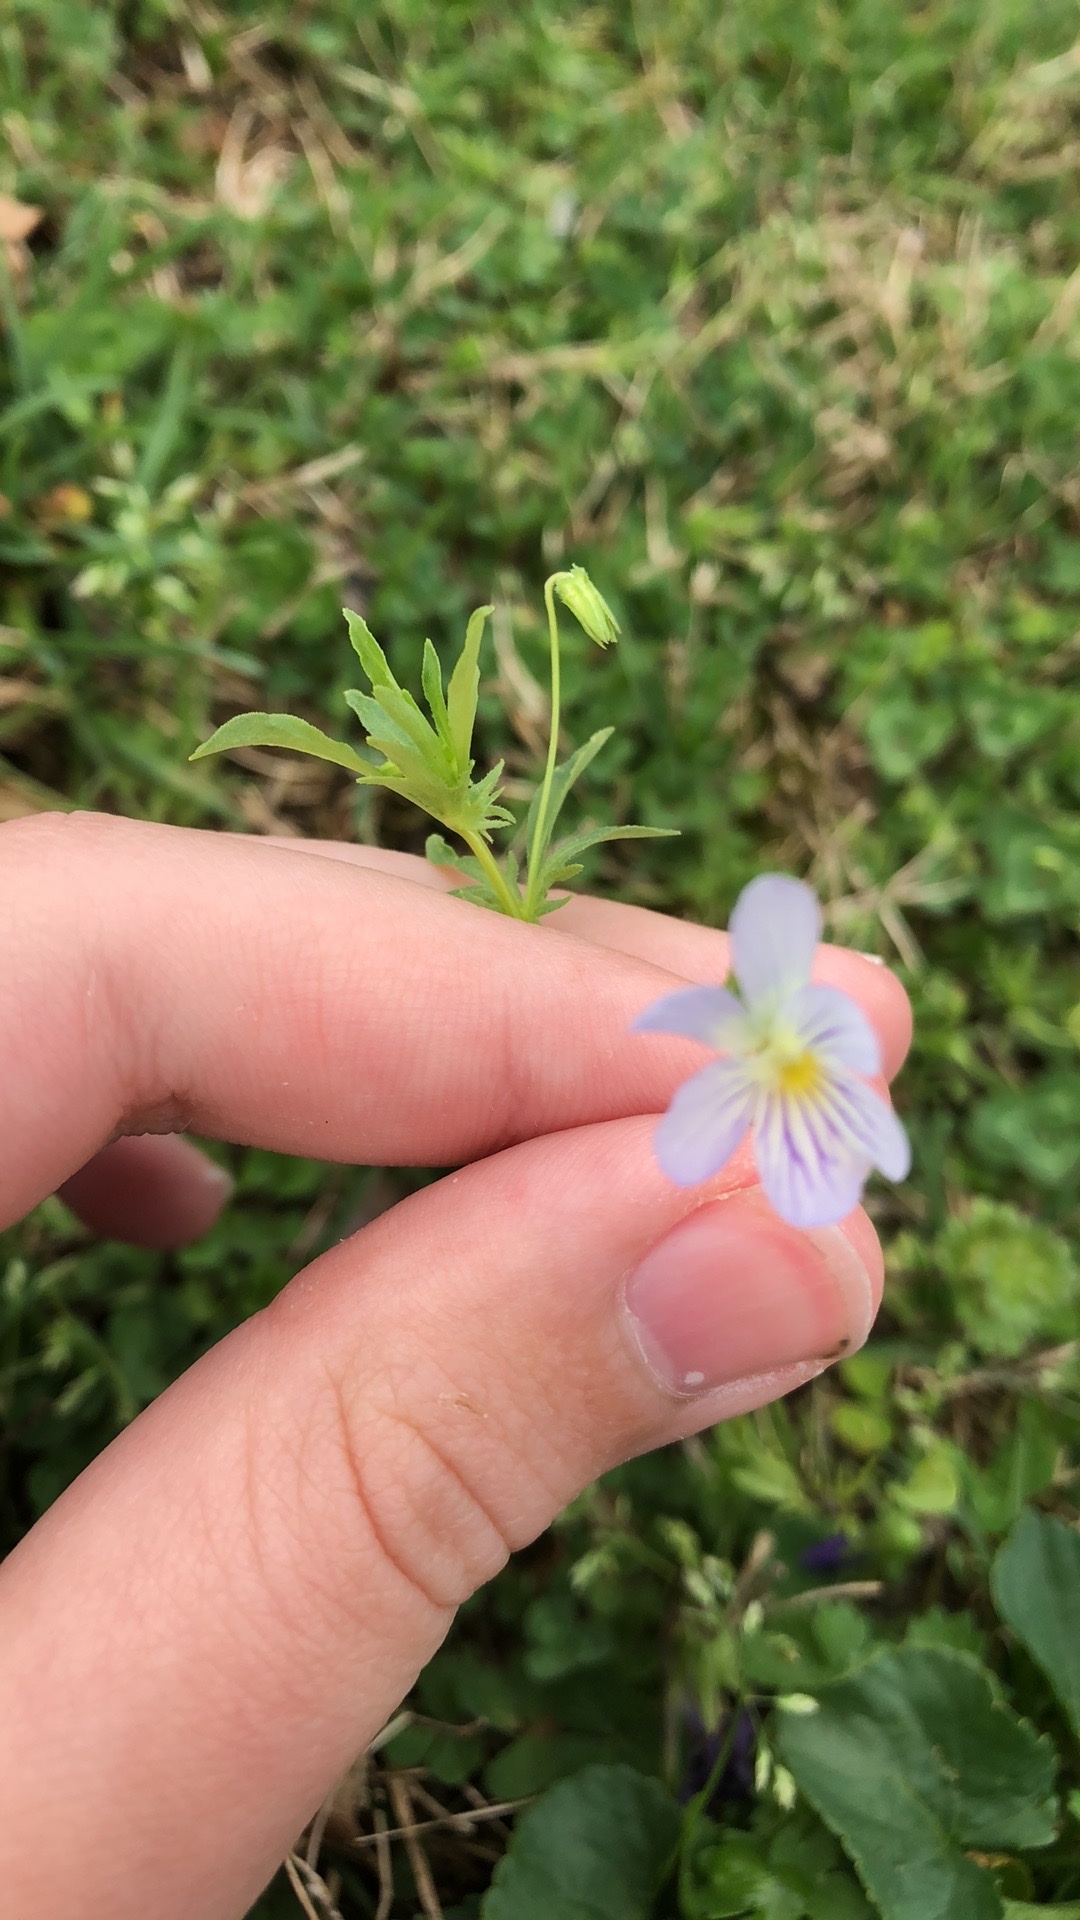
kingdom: Plantae
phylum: Tracheophyta
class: Magnoliopsida
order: Malpighiales
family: Violaceae
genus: Viola
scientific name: Viola rafinesquei
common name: American field pansy
